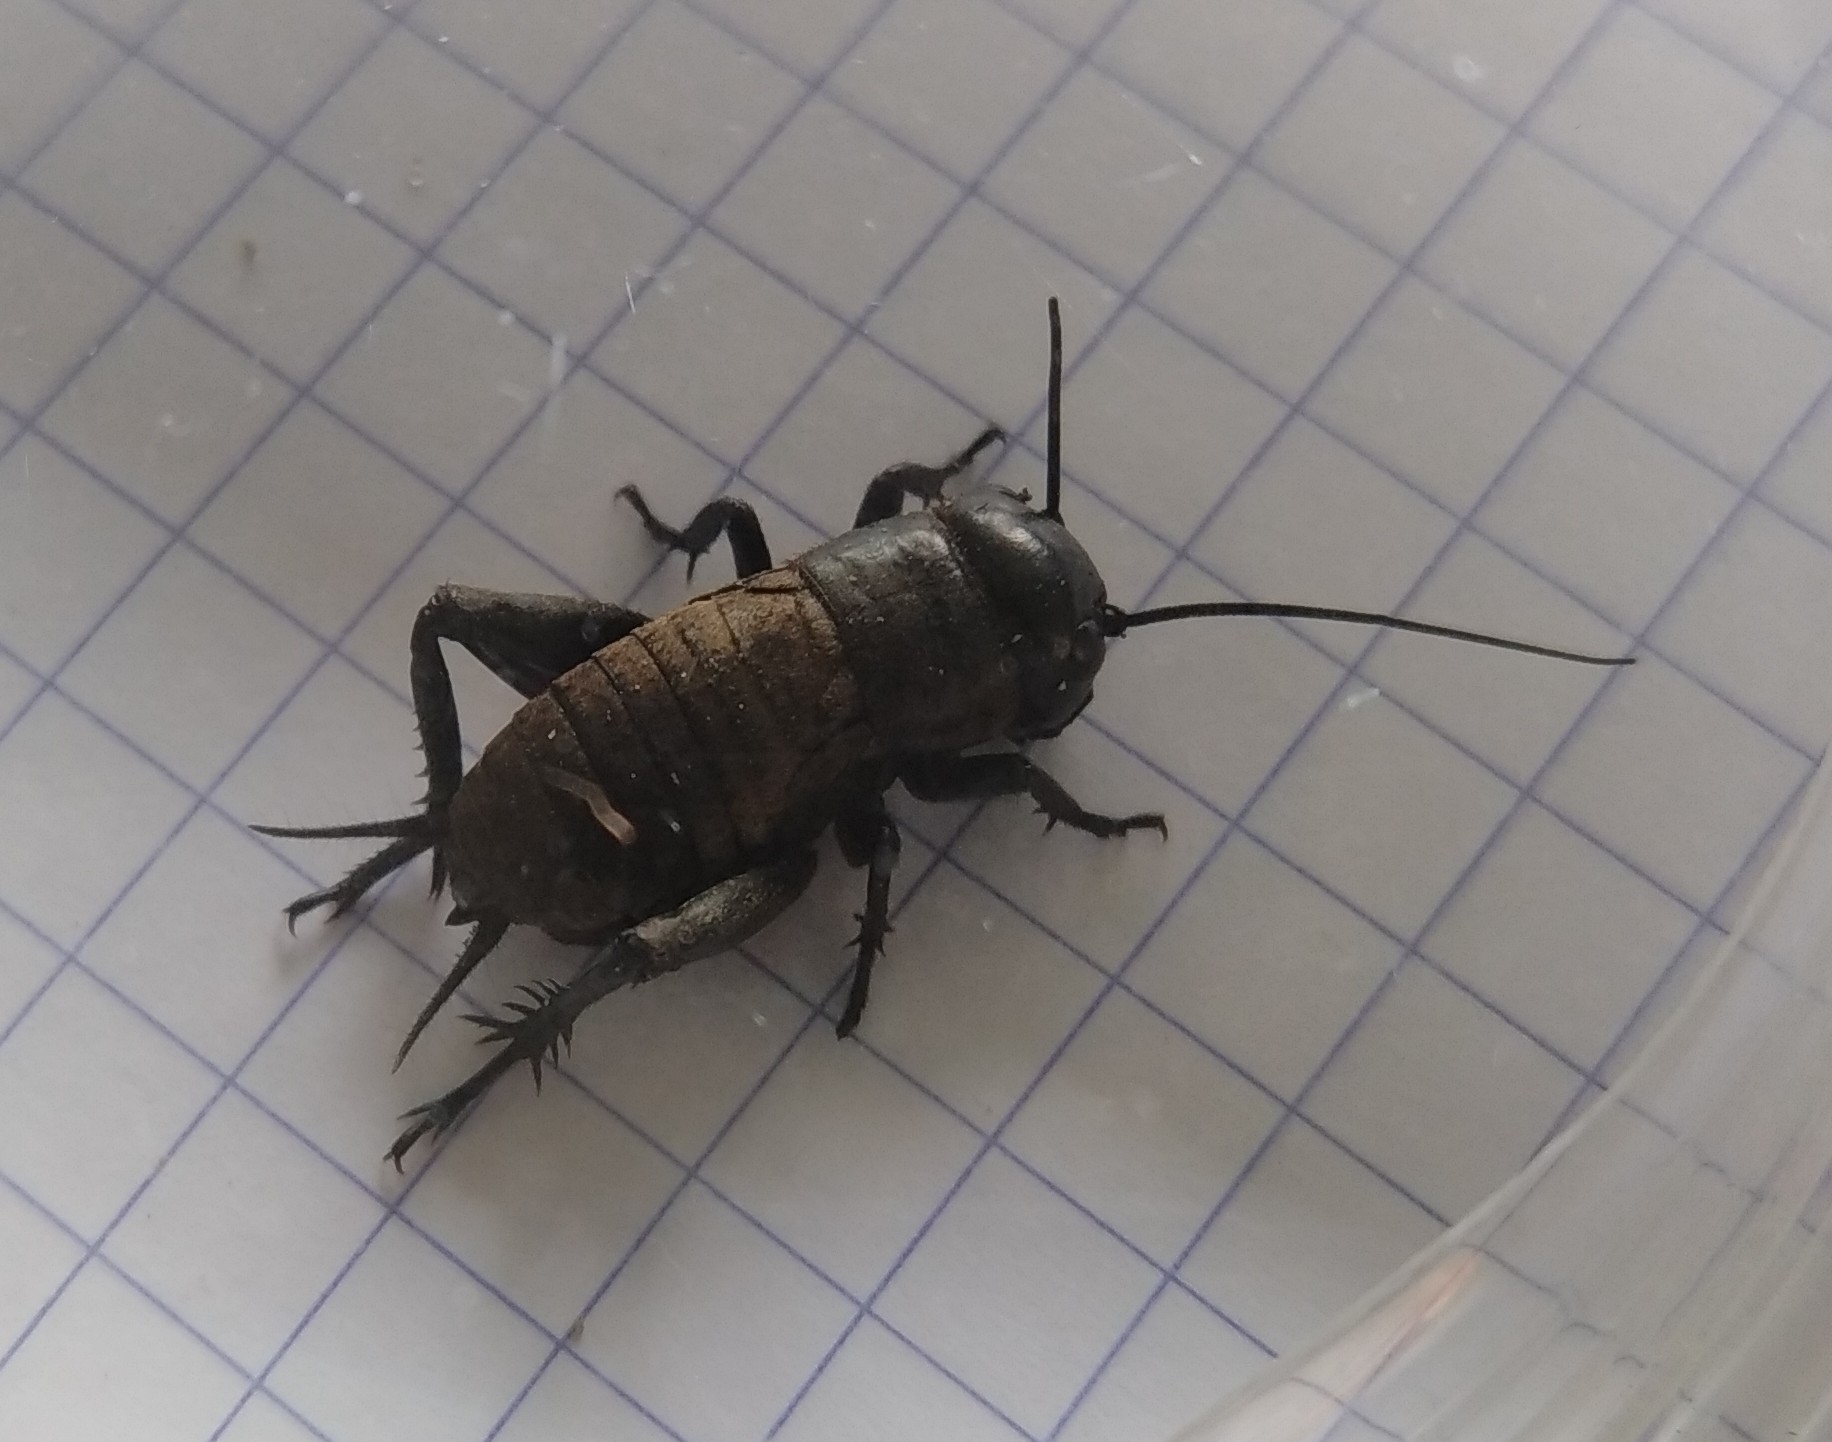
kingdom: Animalia
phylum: Arthropoda
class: Insecta
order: Orthoptera
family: Gryllidae
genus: Gryllus
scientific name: Gryllus campestris
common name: Field cricket
